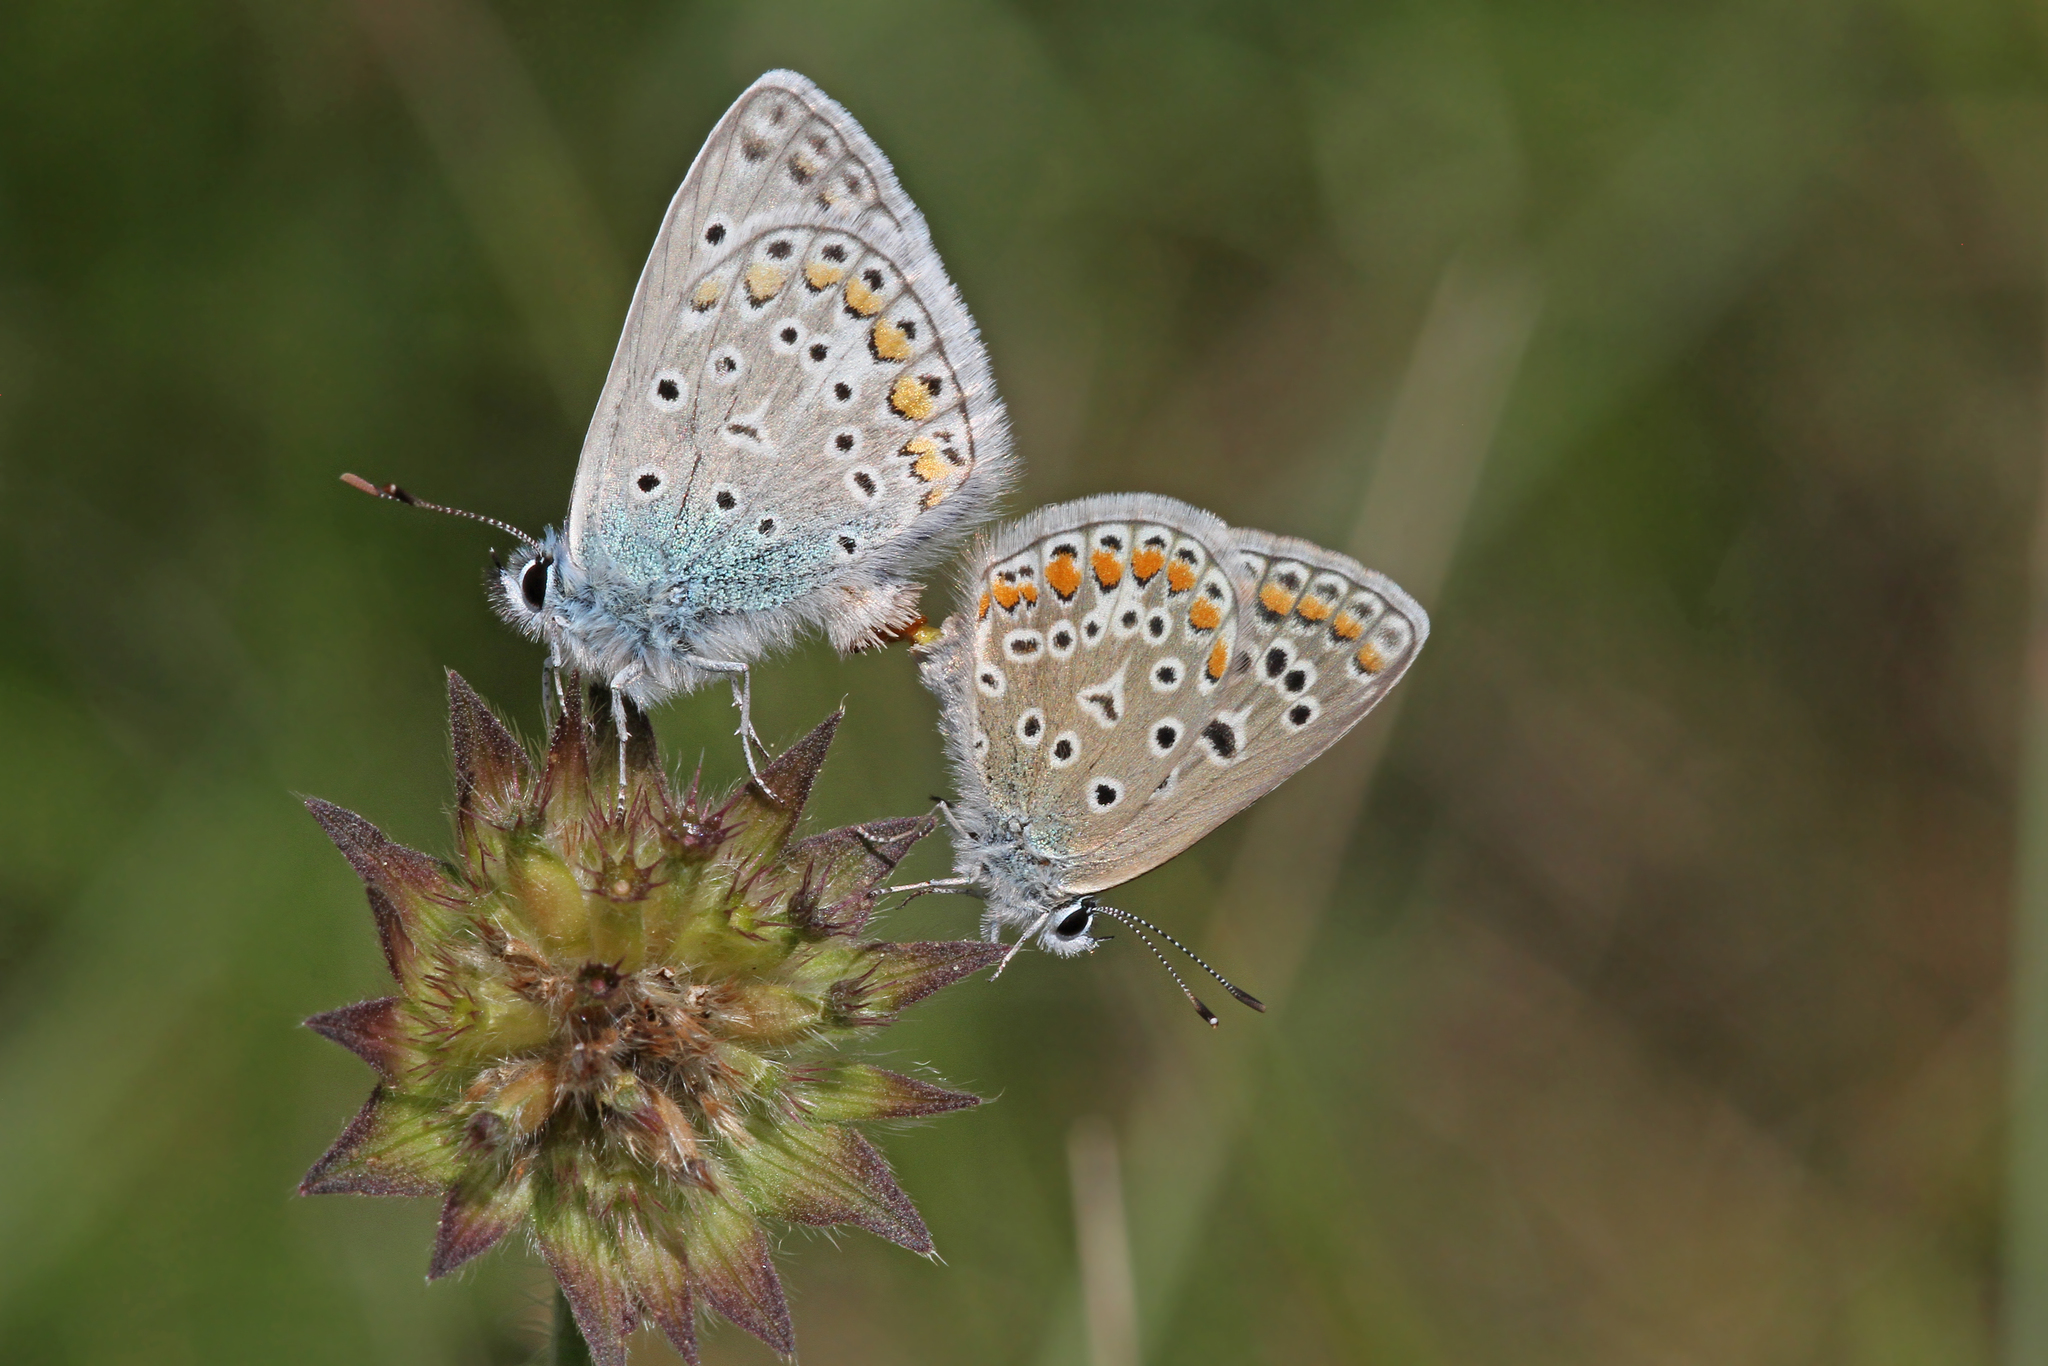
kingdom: Animalia
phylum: Arthropoda
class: Insecta
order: Lepidoptera
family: Lycaenidae
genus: Polyommatus
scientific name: Polyommatus icarus
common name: Common blue
